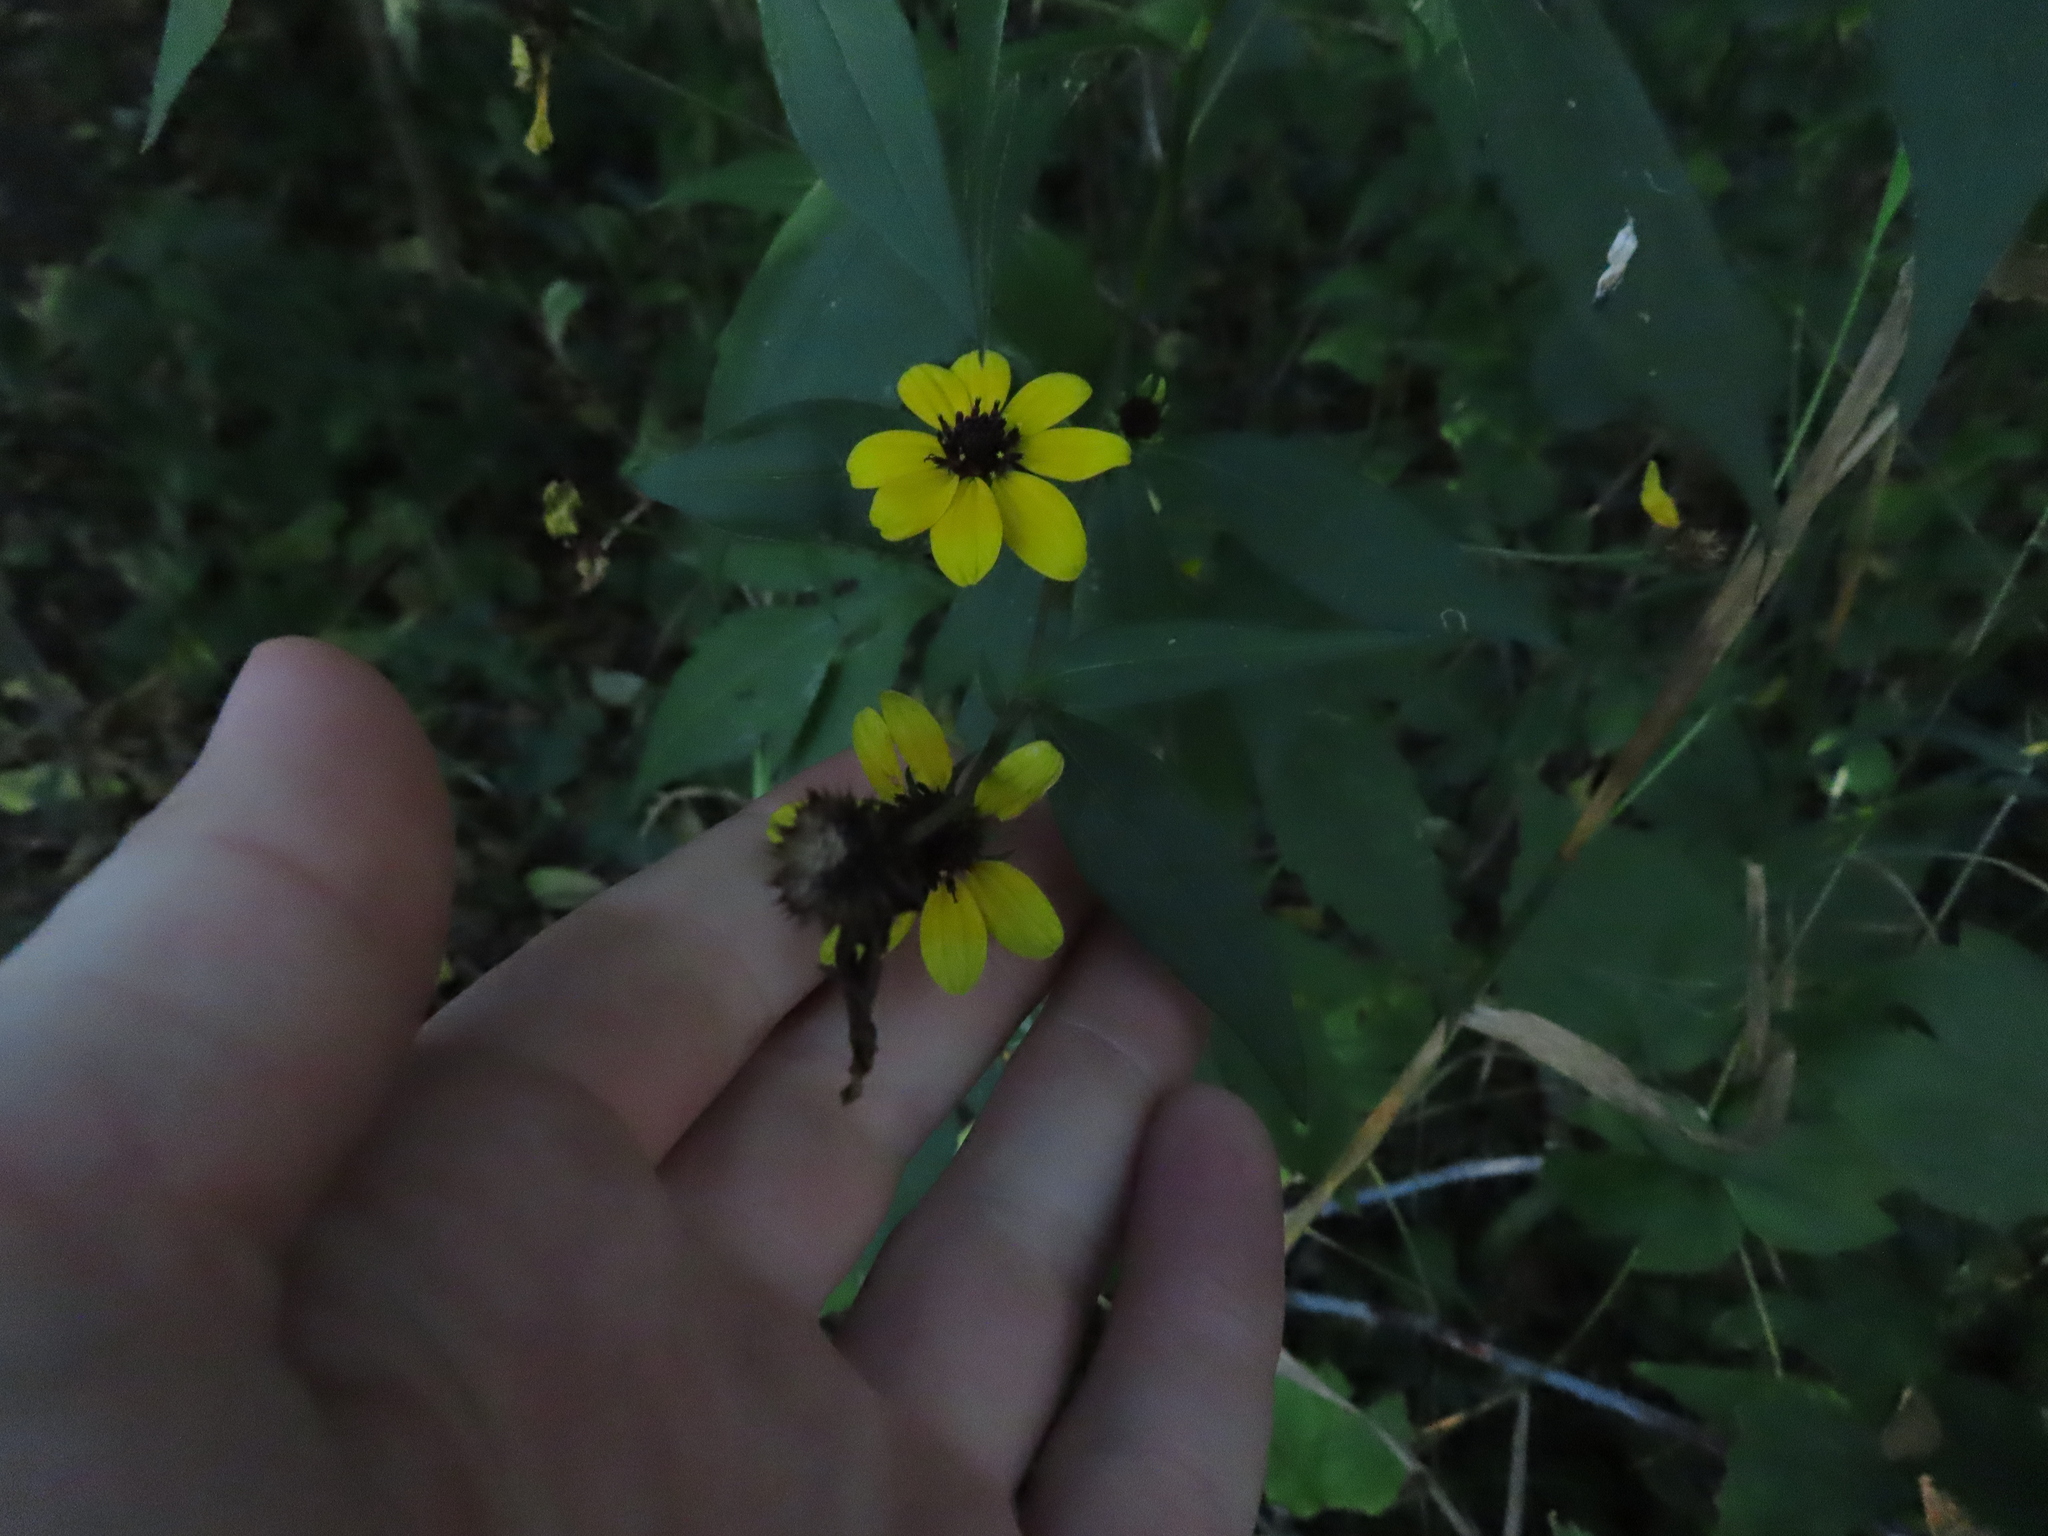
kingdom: Plantae
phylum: Tracheophyta
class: Magnoliopsida
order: Asterales
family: Asteraceae
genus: Rudbeckia
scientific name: Rudbeckia triloba
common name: Thin-leaved coneflower
